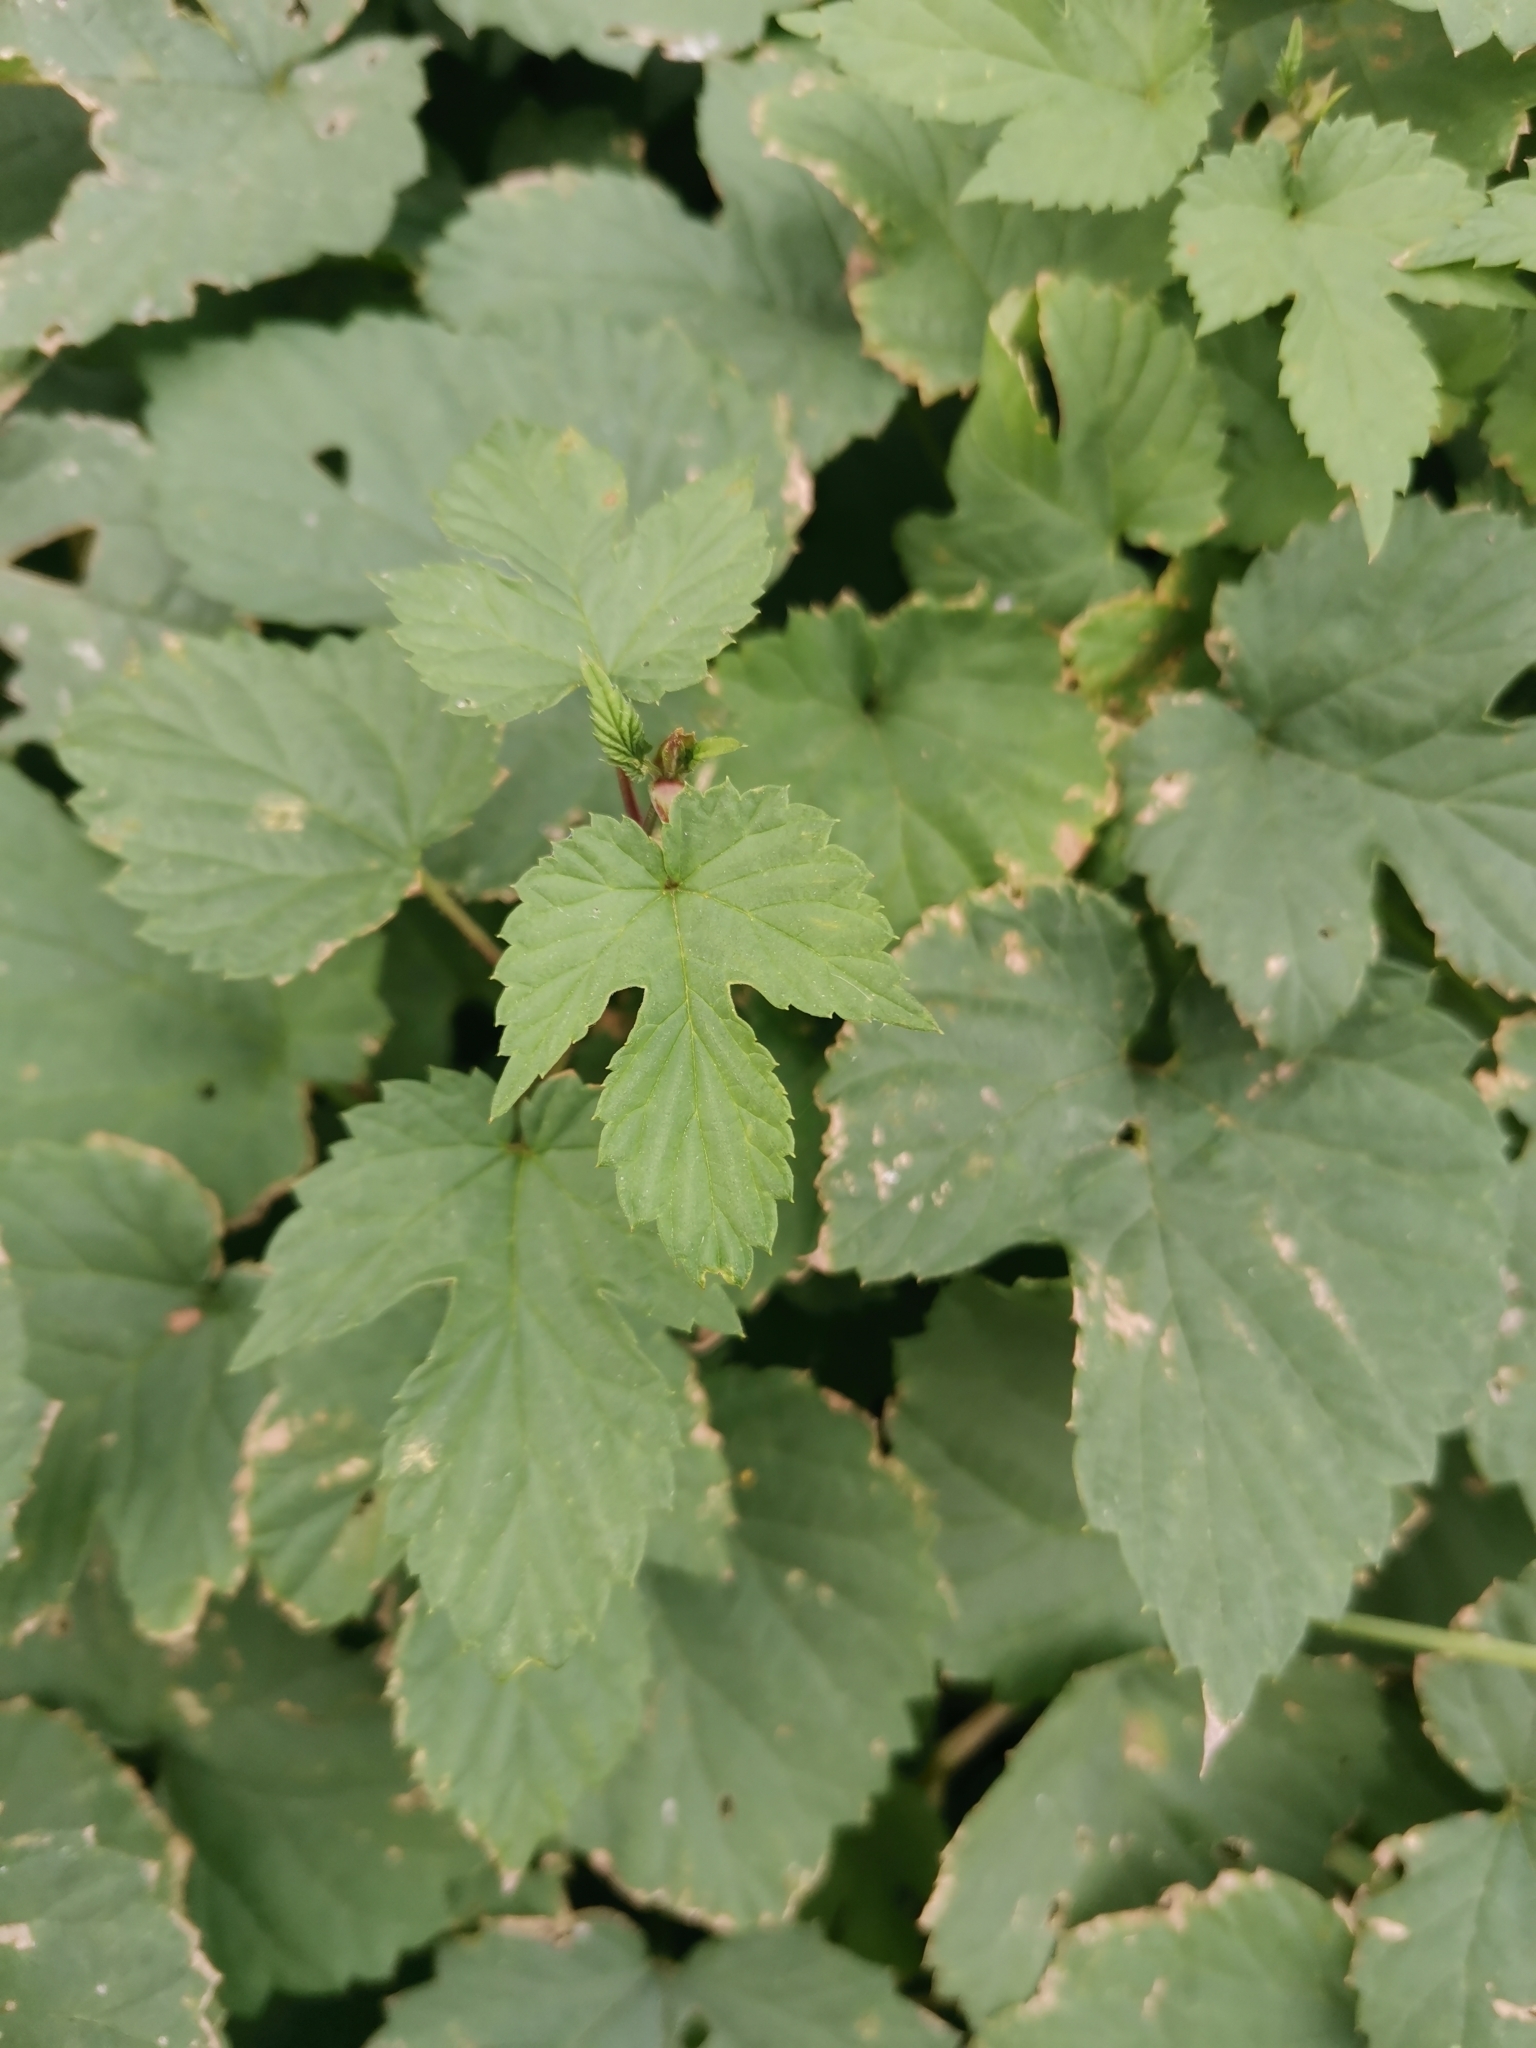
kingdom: Plantae
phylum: Tracheophyta
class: Magnoliopsida
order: Rosales
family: Cannabaceae
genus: Humulus
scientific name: Humulus lupulus
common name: Hop
